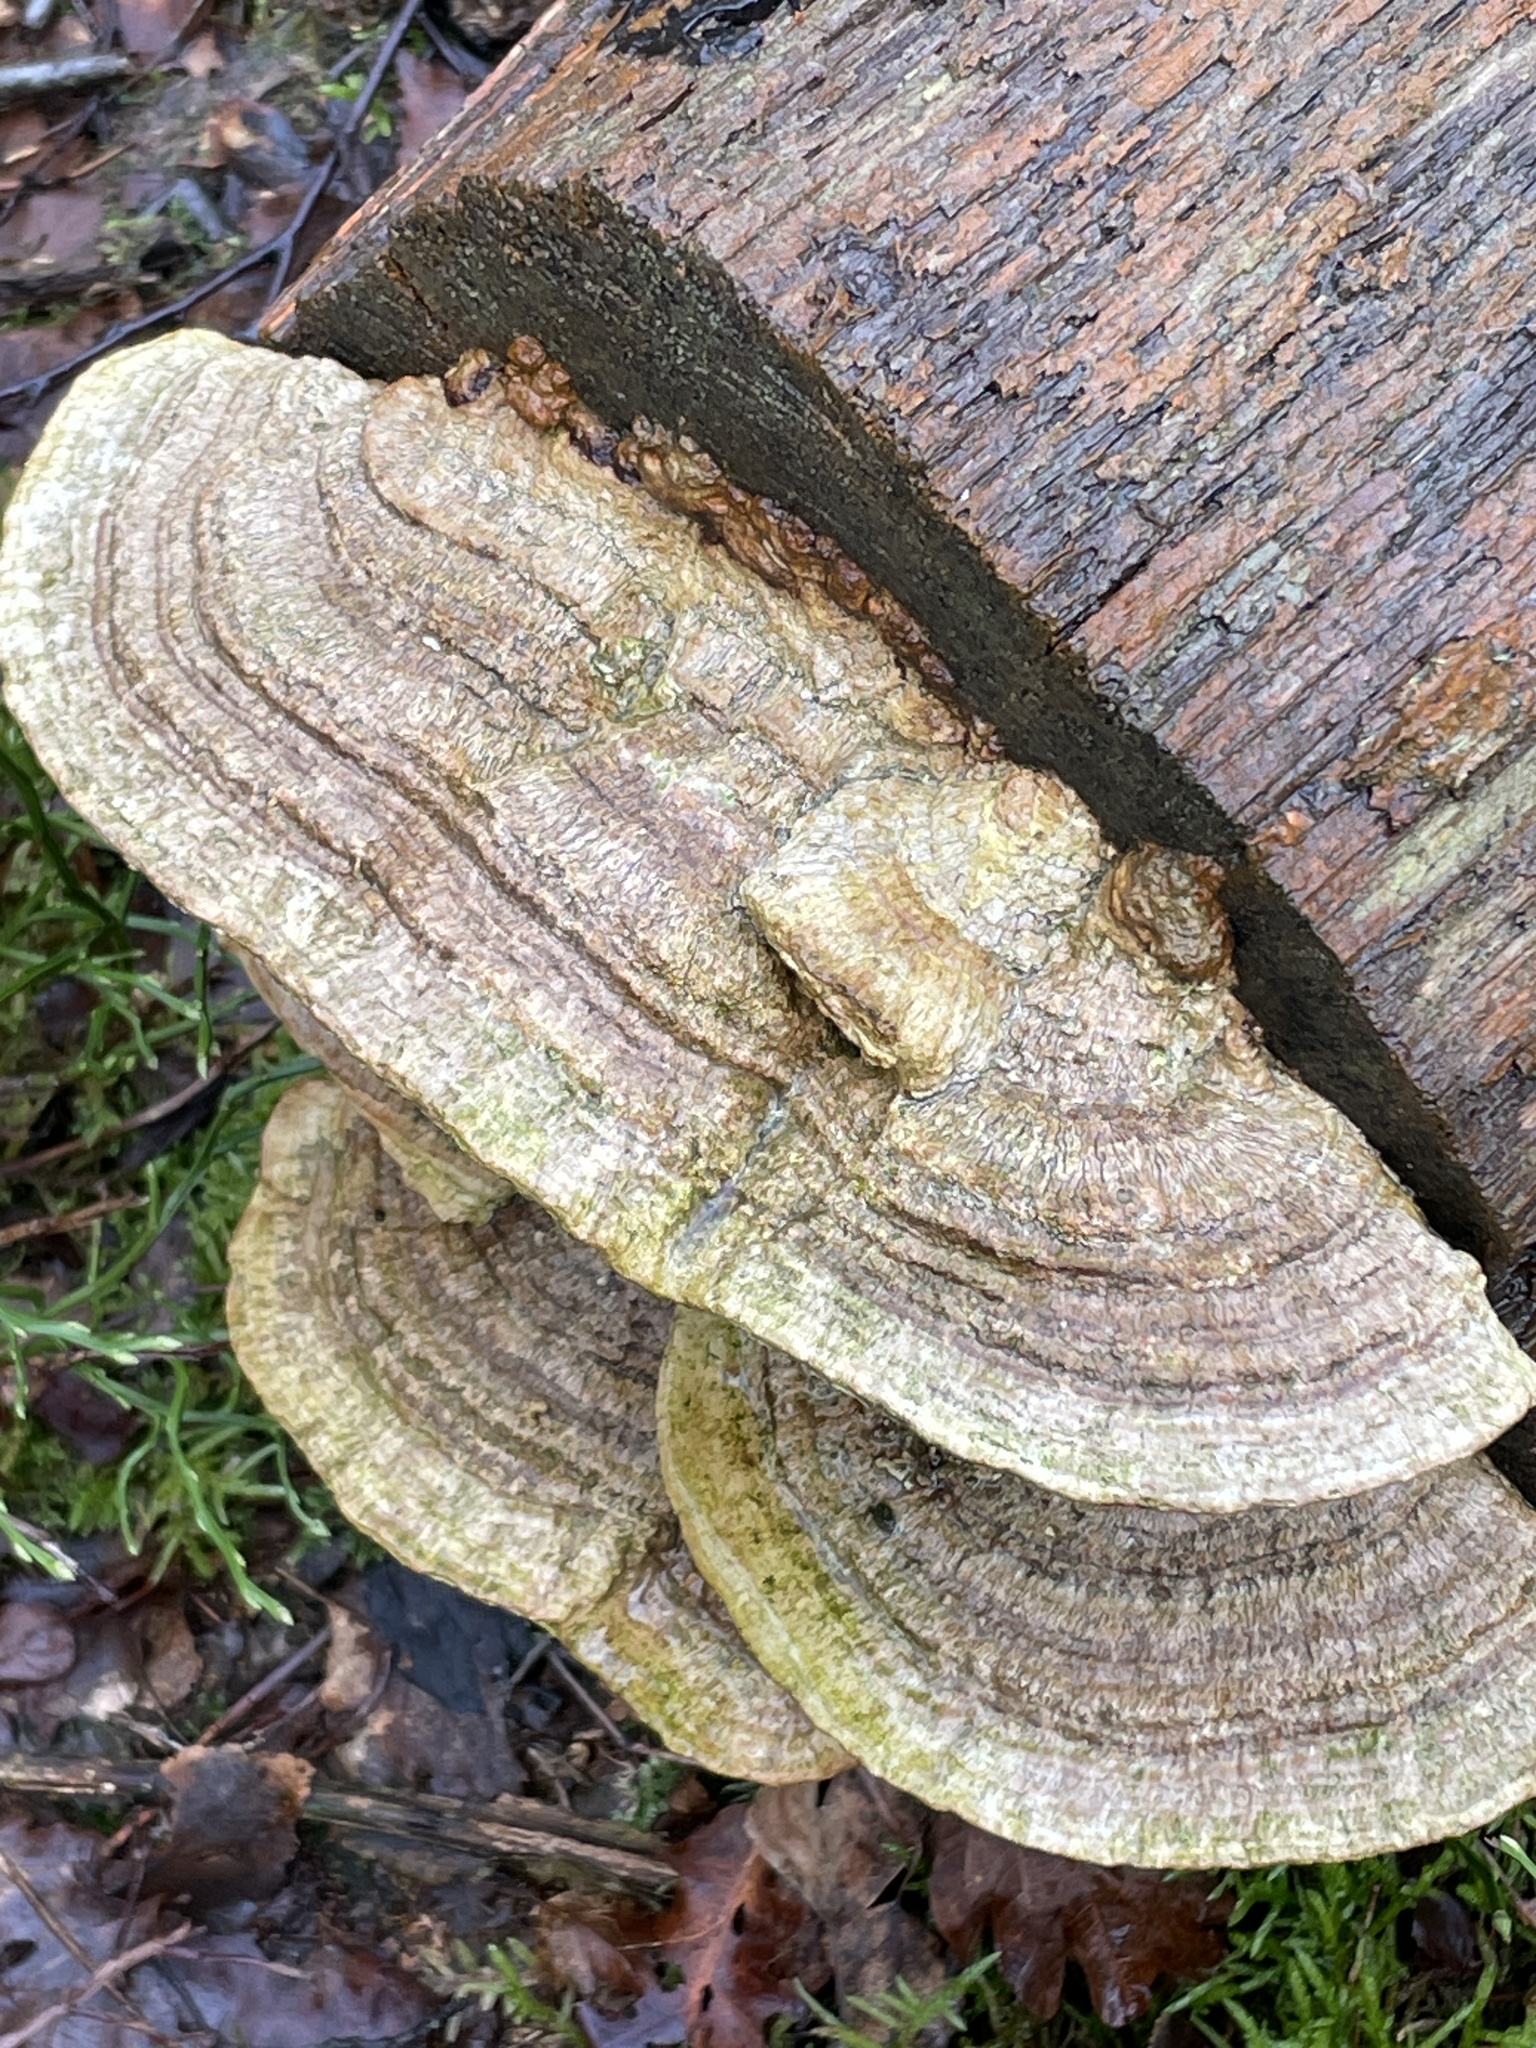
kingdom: Fungi
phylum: Basidiomycota
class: Agaricomycetes
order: Polyporales
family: Fomitopsidaceae
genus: Fomitopsis
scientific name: Fomitopsis
